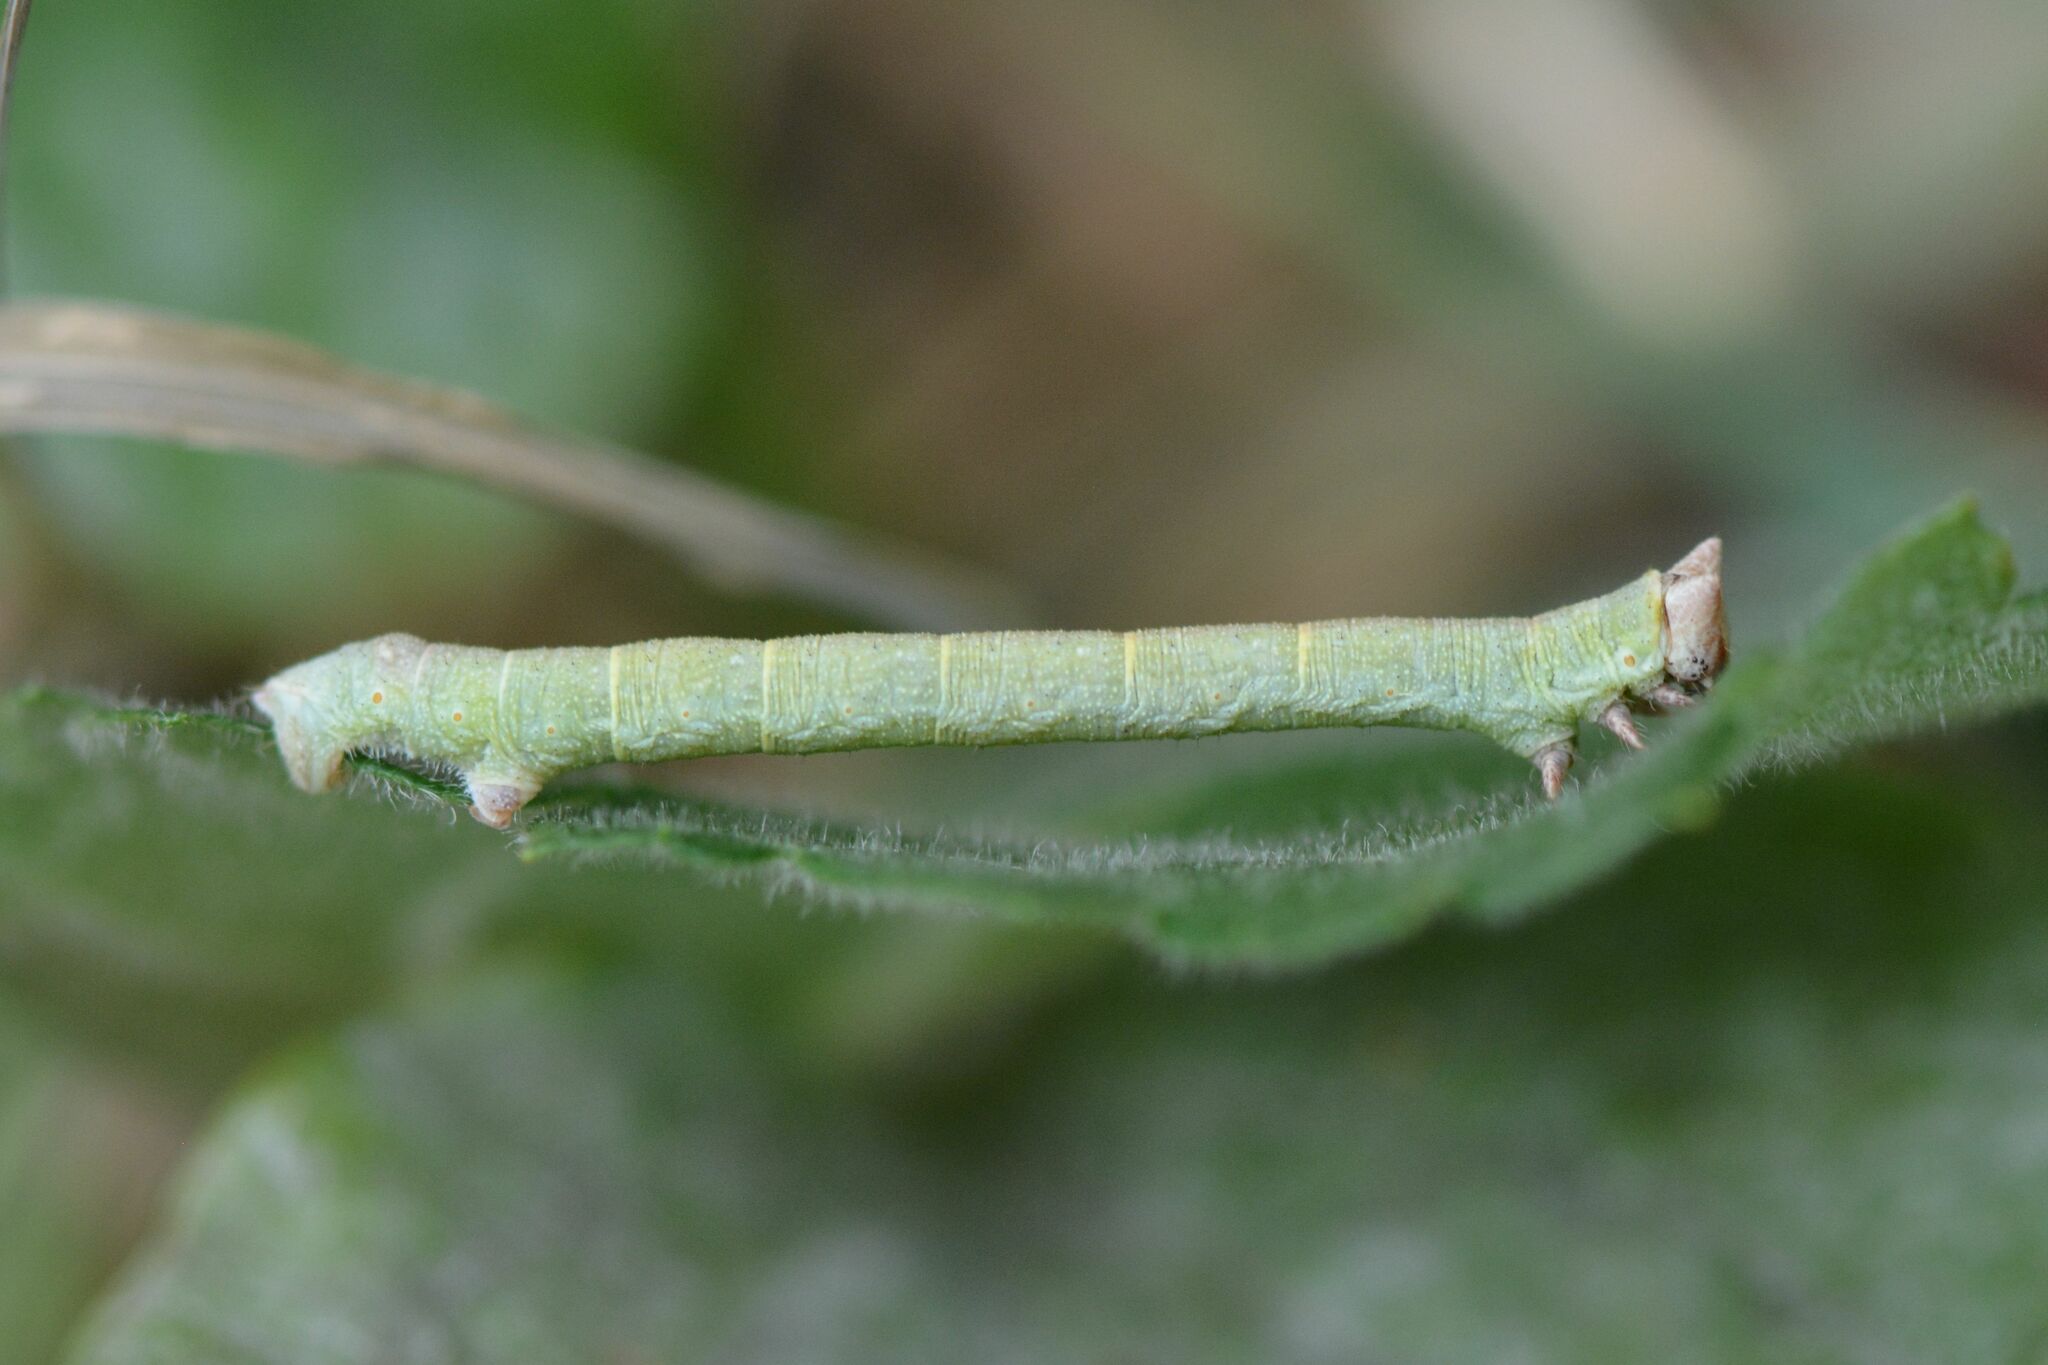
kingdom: Animalia
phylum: Arthropoda
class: Insecta
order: Lepidoptera
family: Geometridae
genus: Biston
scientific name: Biston betularia
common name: Peppered moth
